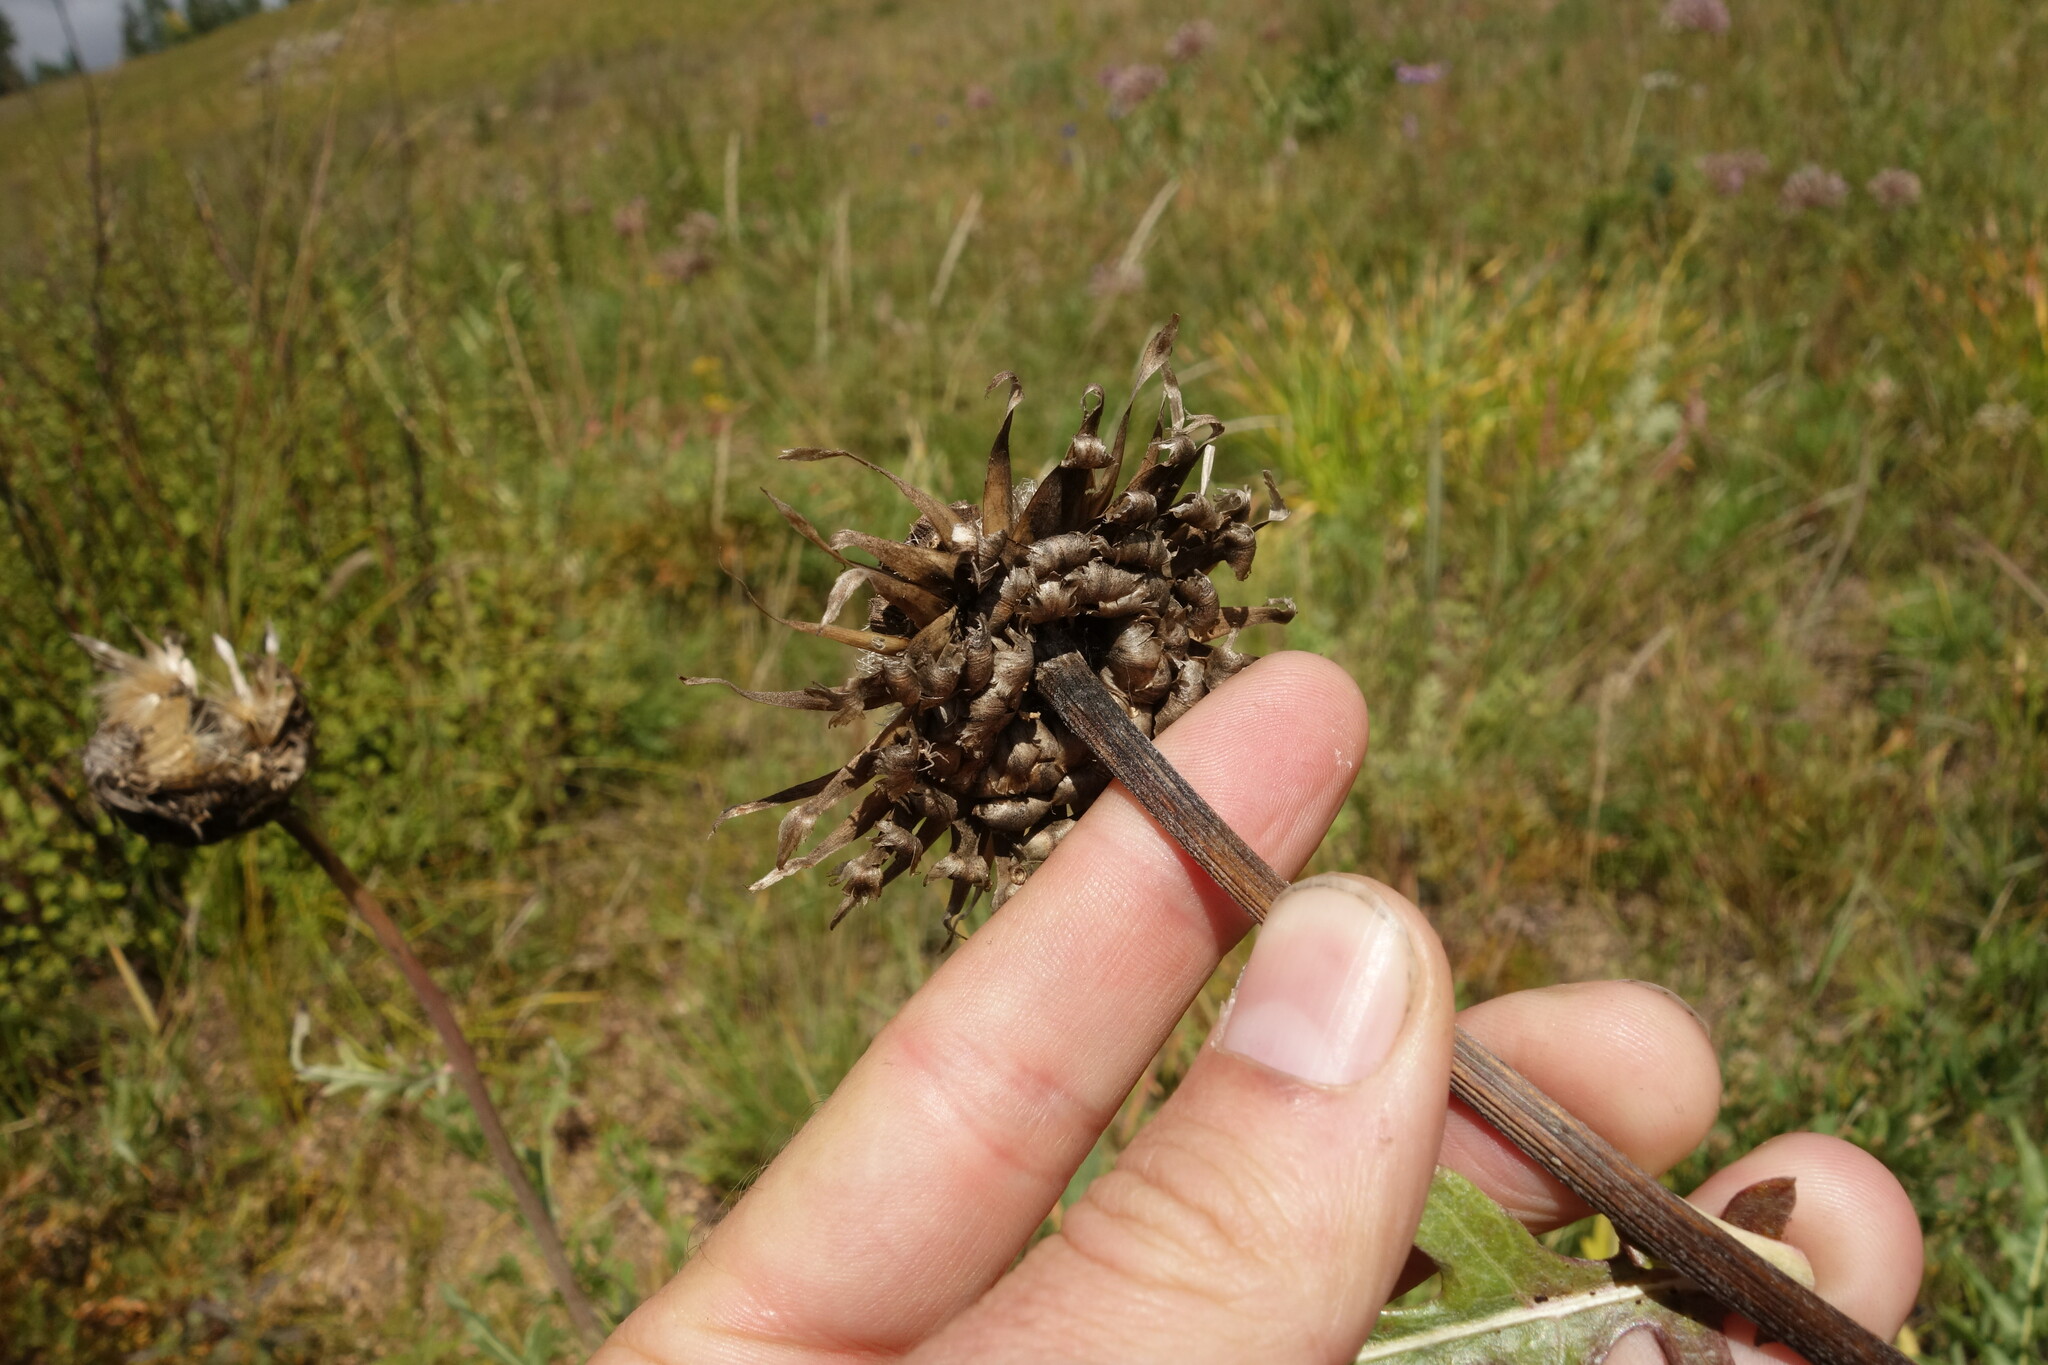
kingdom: Plantae
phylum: Tracheophyta
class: Magnoliopsida
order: Asterales
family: Asteraceae
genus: Leuzea
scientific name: Leuzea uniflora
